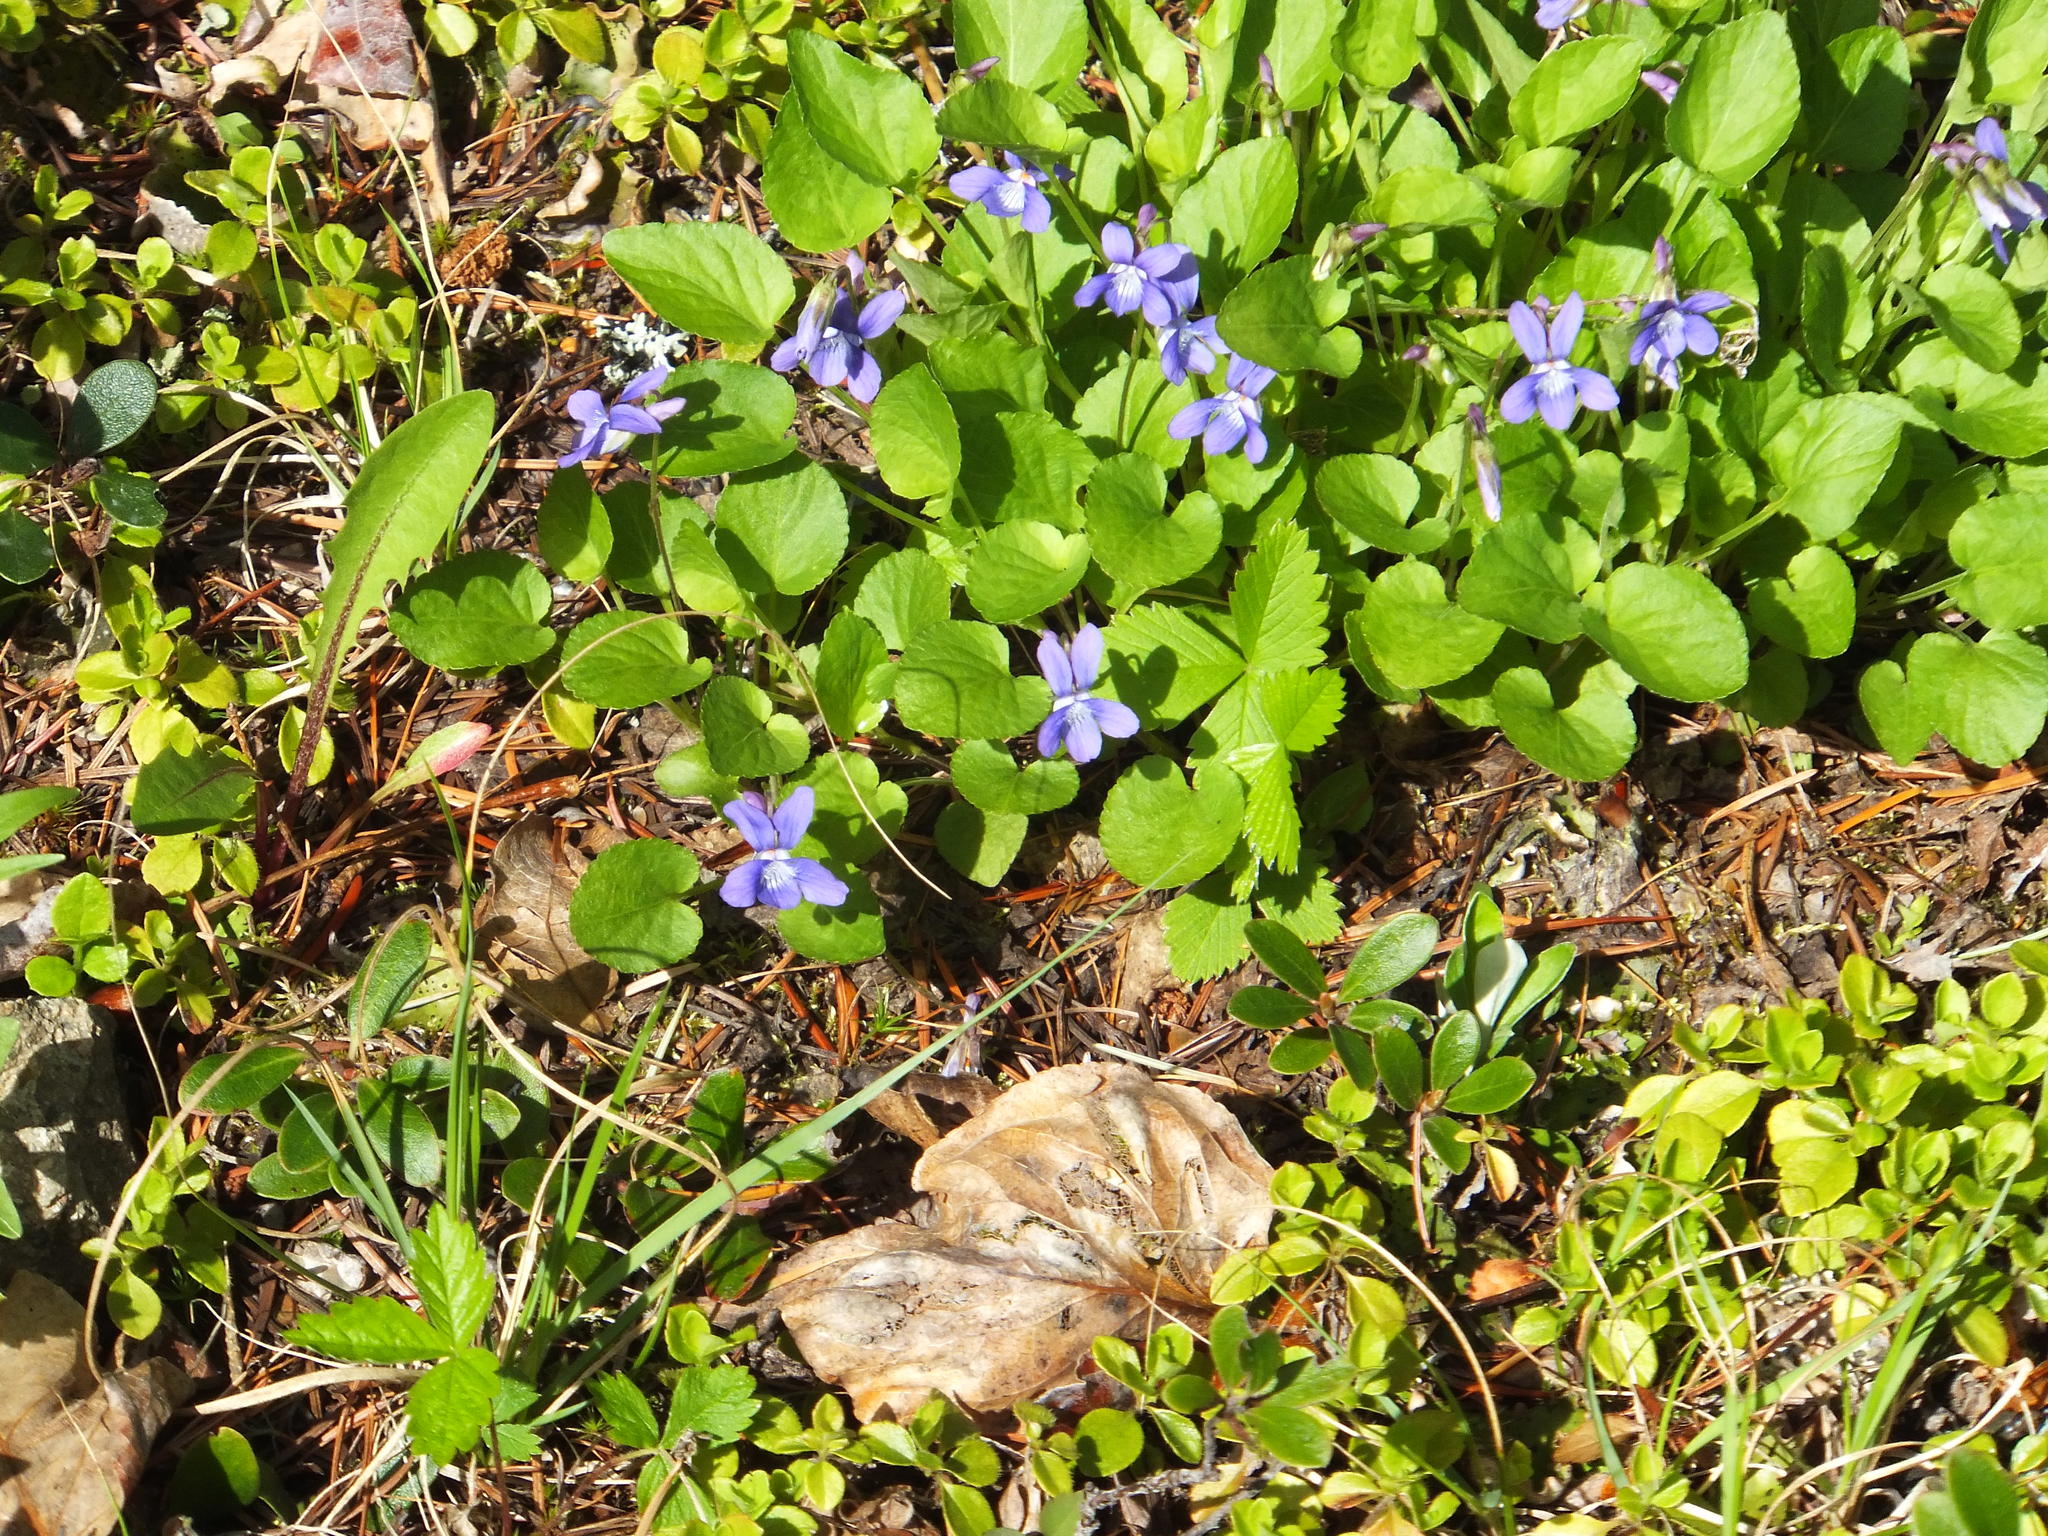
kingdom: Plantae
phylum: Tracheophyta
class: Magnoliopsida
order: Malpighiales
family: Violaceae
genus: Viola
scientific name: Viola adunca
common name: Sand violet
